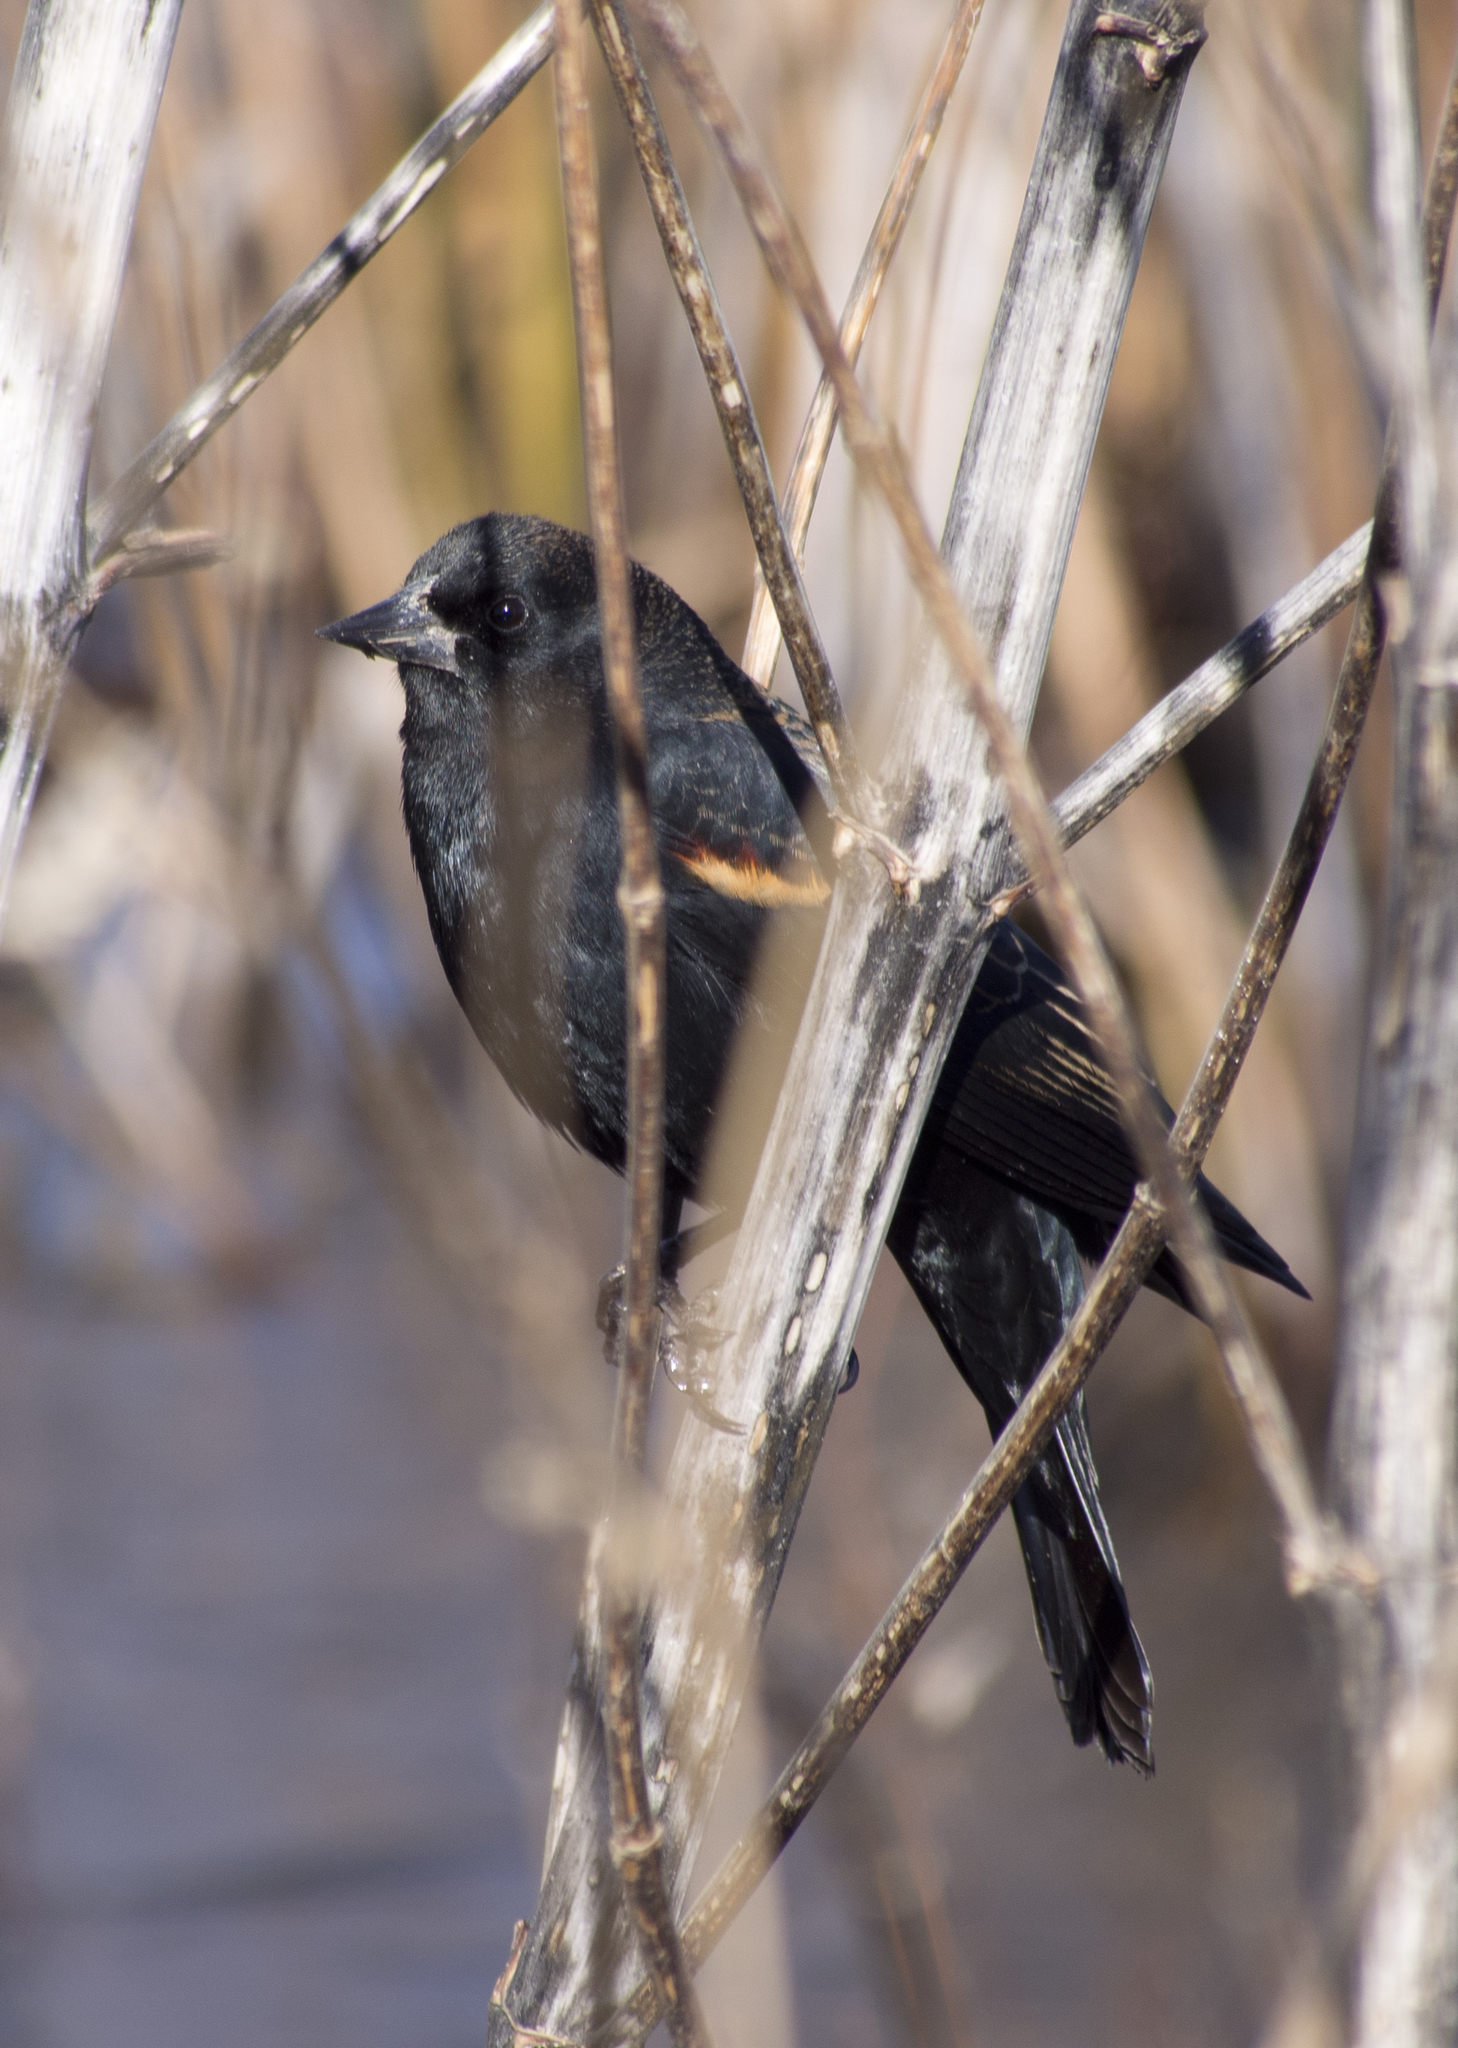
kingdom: Animalia
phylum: Chordata
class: Aves
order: Passeriformes
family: Icteridae
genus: Agelaius
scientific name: Agelaius phoeniceus
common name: Red-winged blackbird
